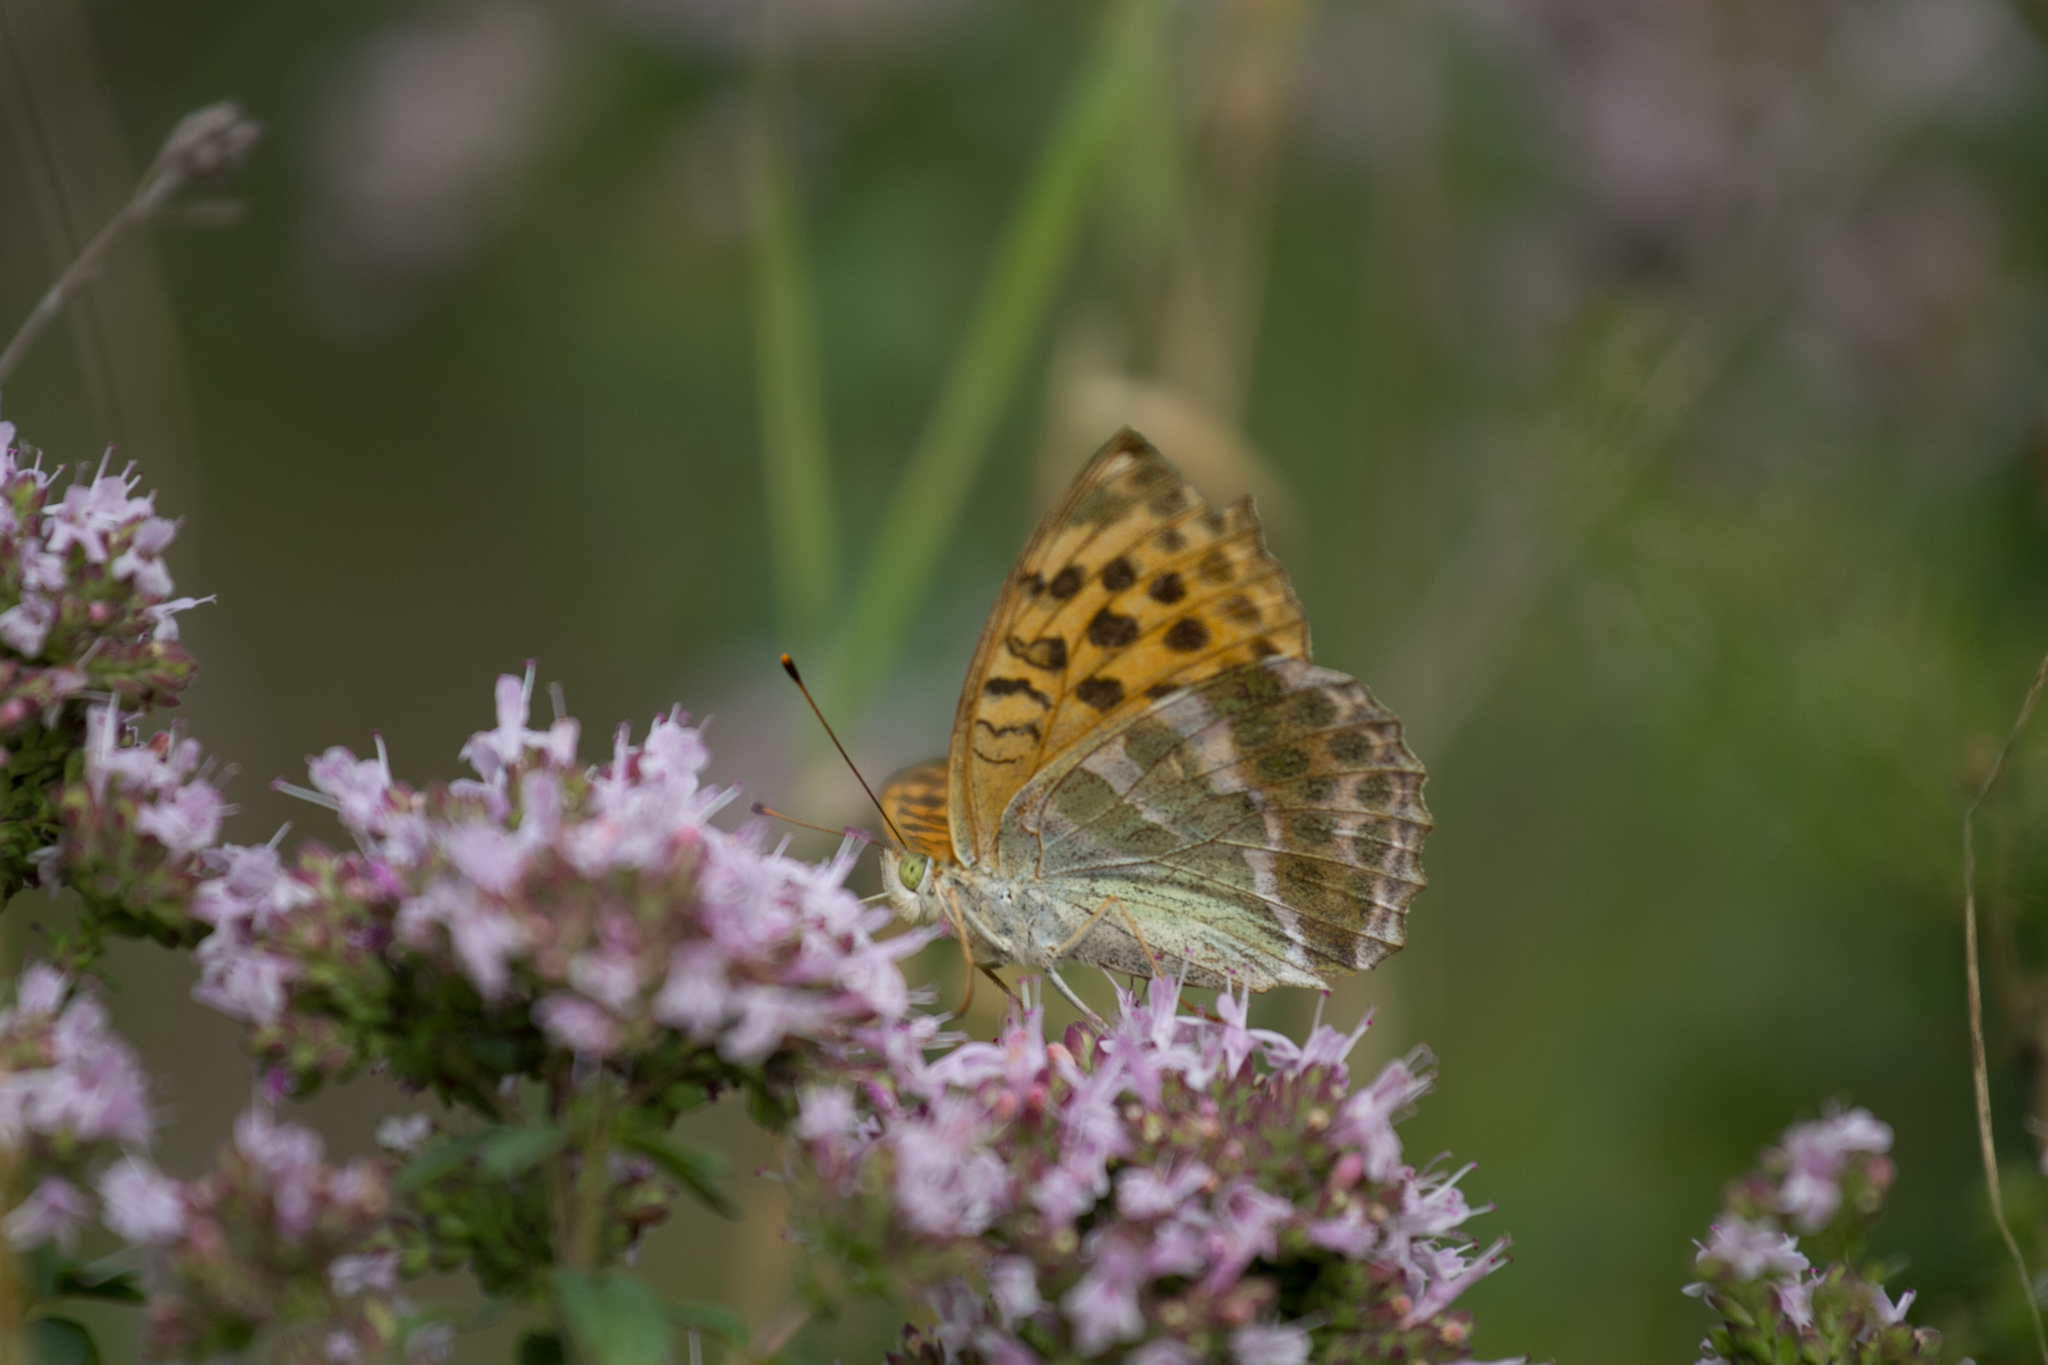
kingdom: Animalia
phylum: Arthropoda
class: Insecta
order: Lepidoptera
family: Nymphalidae
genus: Argynnis
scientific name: Argynnis paphia
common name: Silver-washed fritillary
